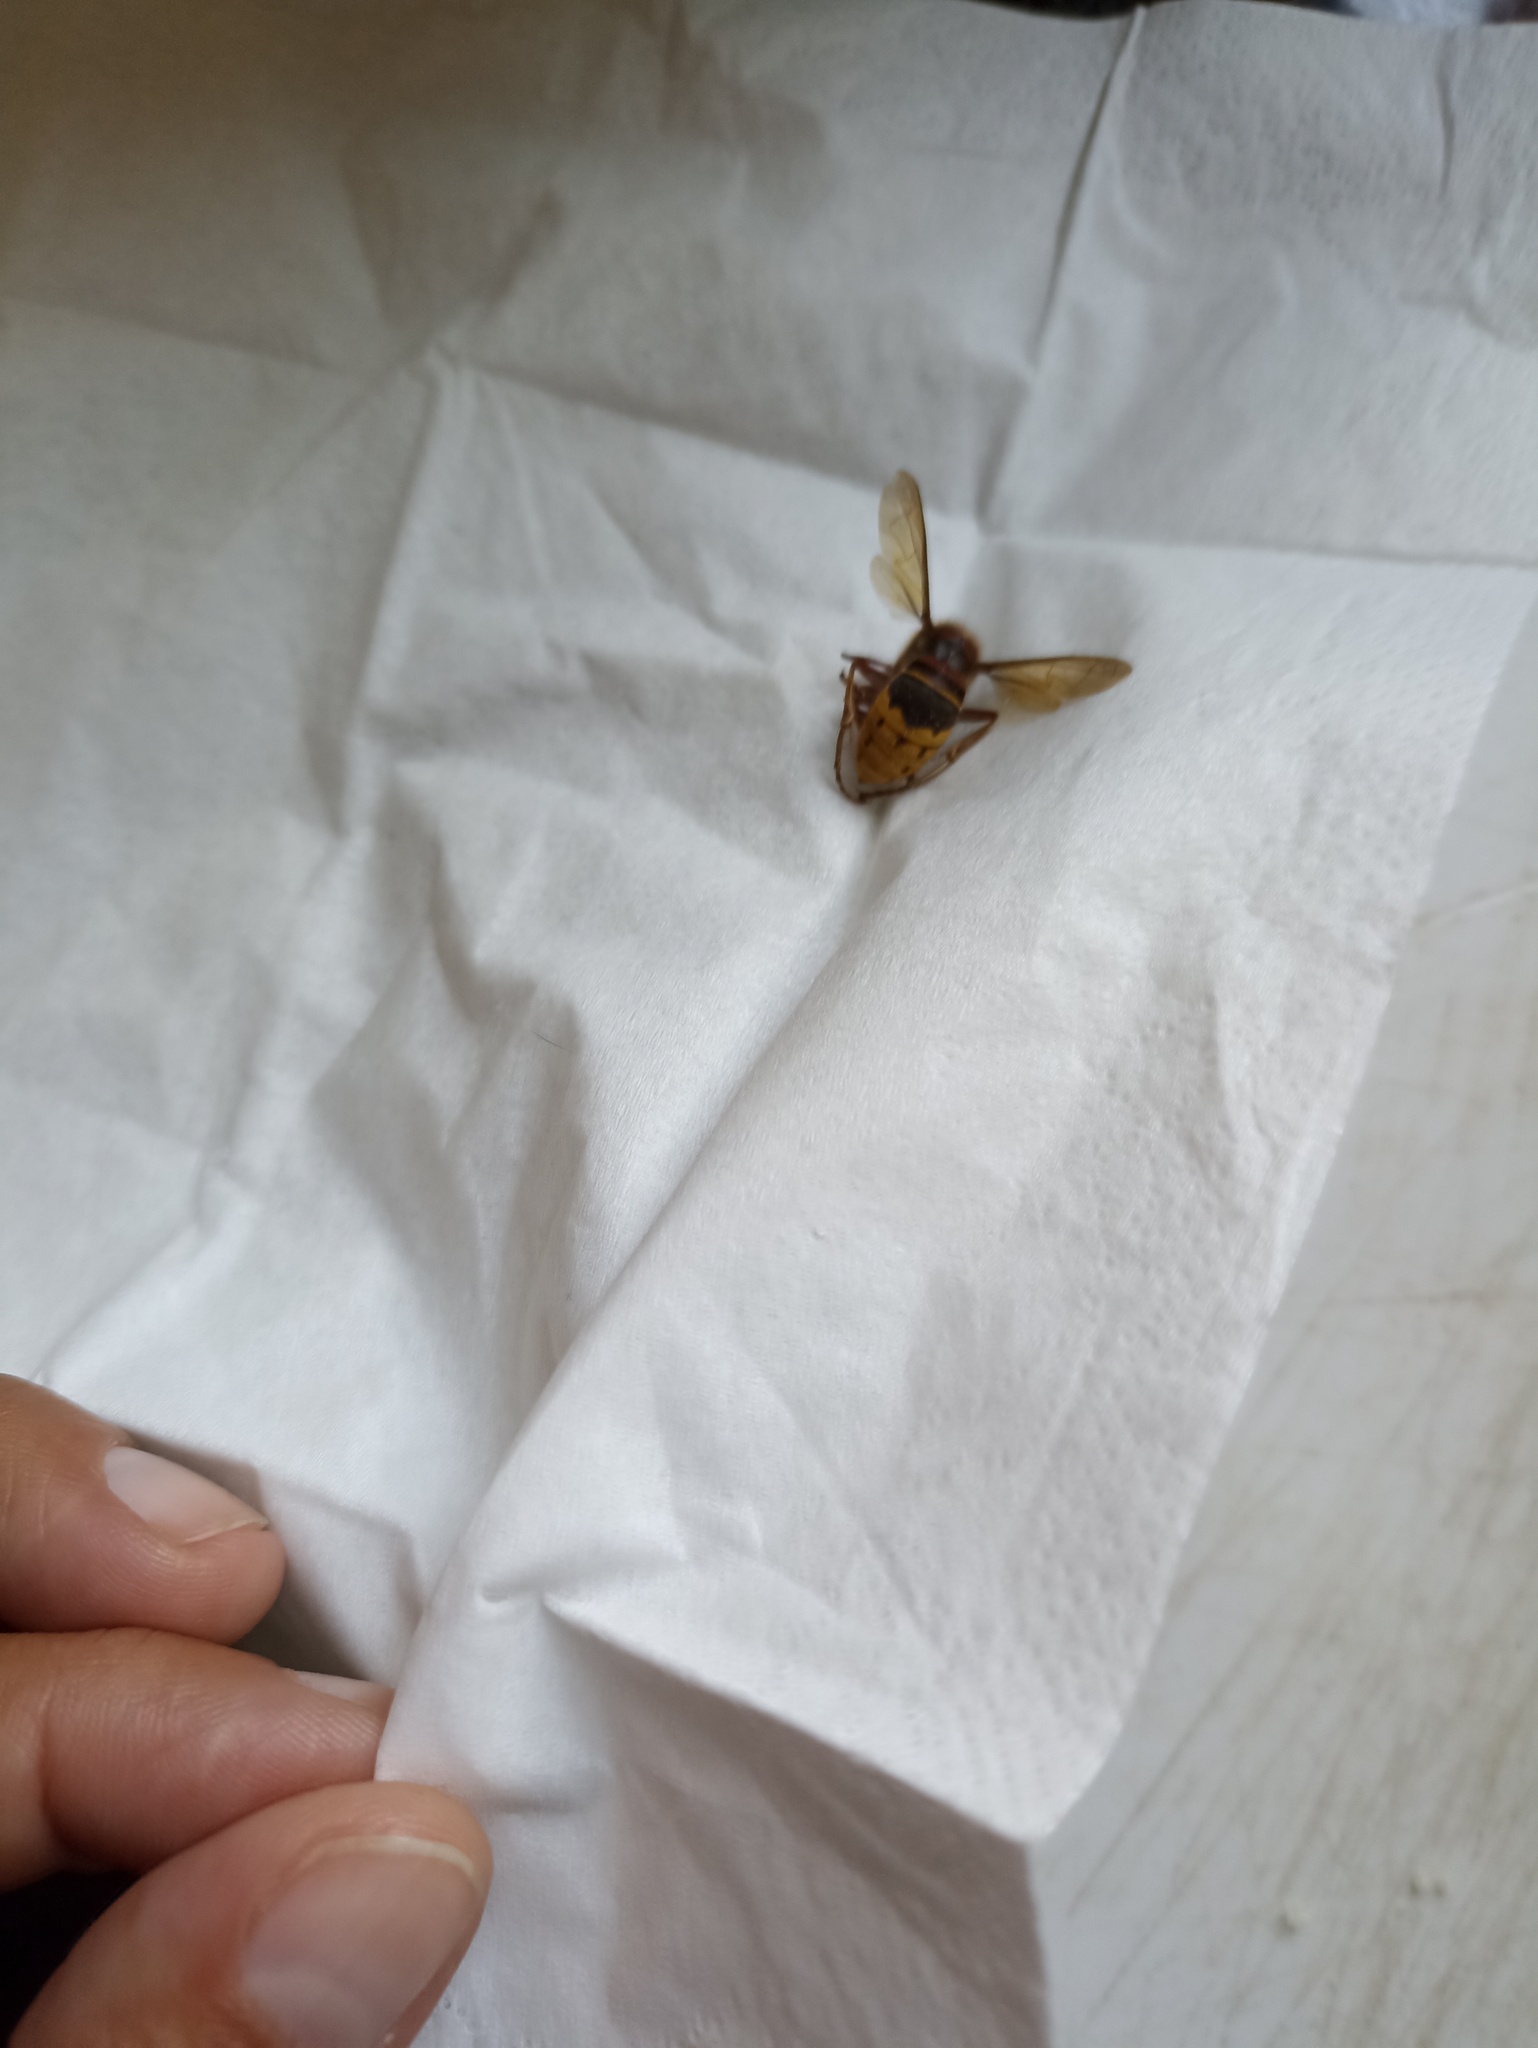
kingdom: Animalia
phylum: Arthropoda
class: Insecta
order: Hymenoptera
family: Vespidae
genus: Vespa
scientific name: Vespa crabro
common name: Hornet
